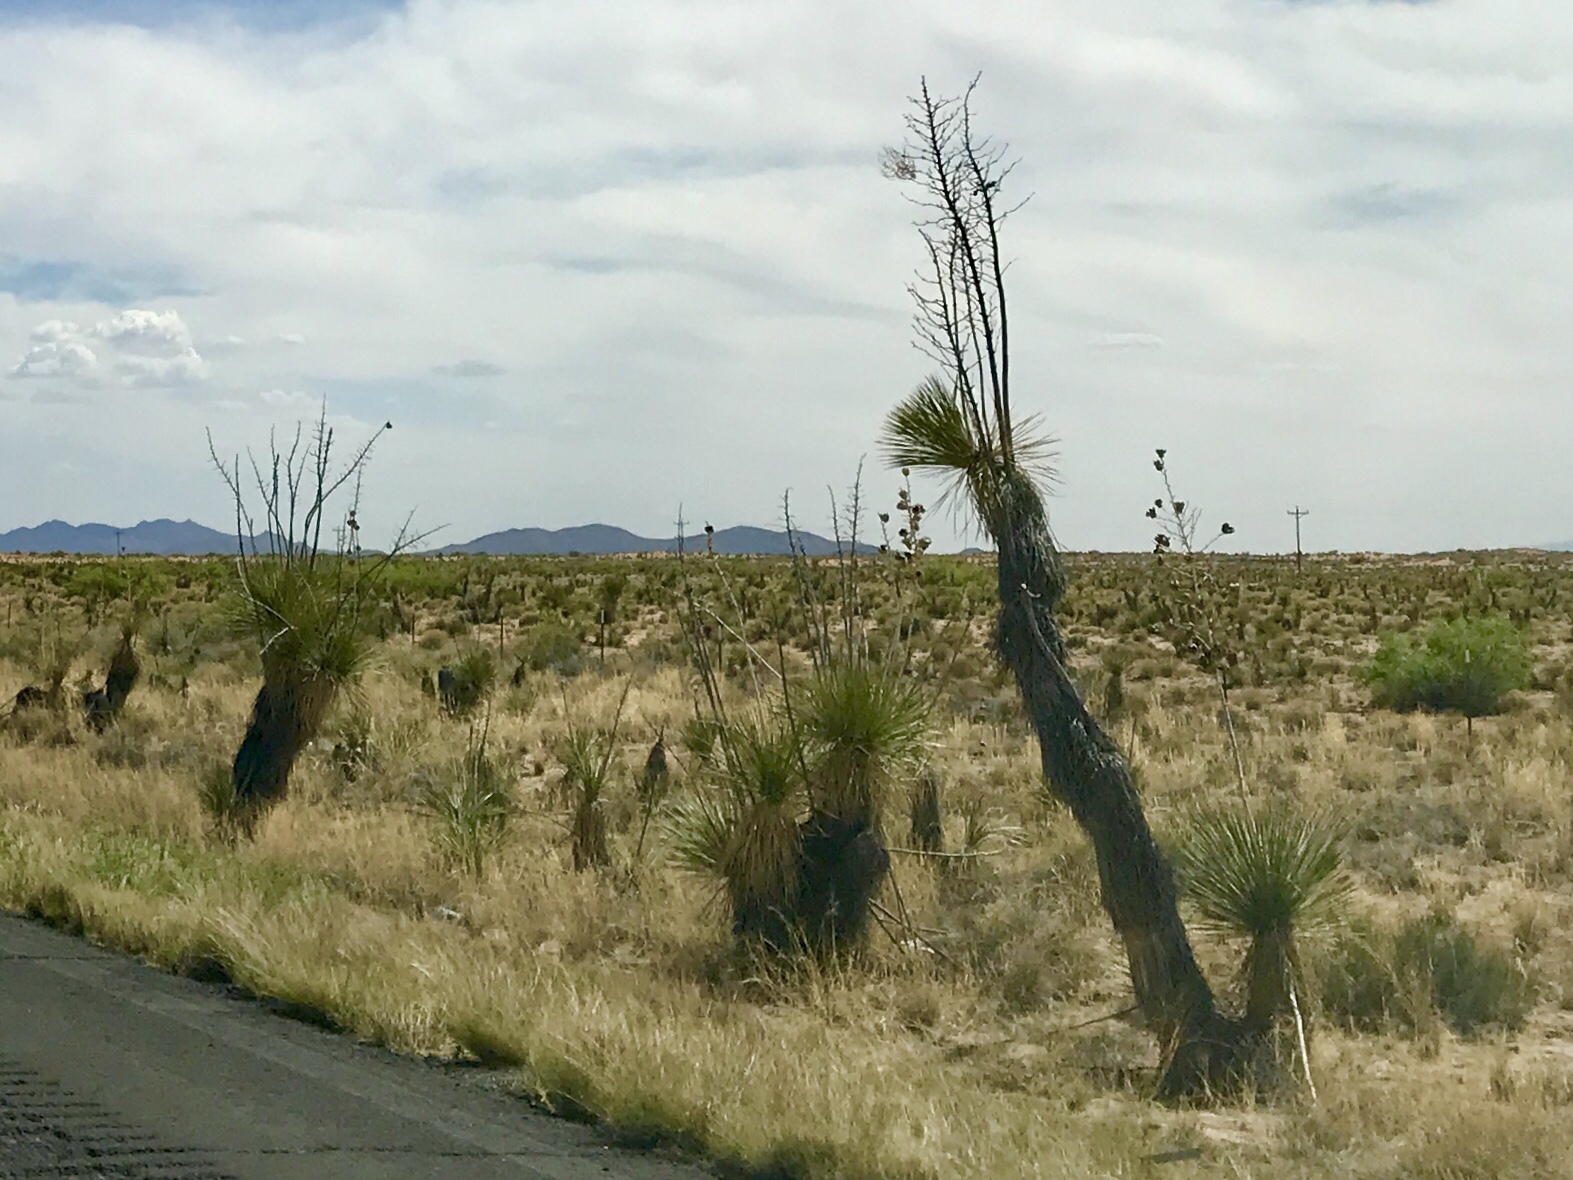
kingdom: Plantae
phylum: Tracheophyta
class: Liliopsida
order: Asparagales
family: Asparagaceae
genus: Yucca
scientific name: Yucca elata
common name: Palmella
